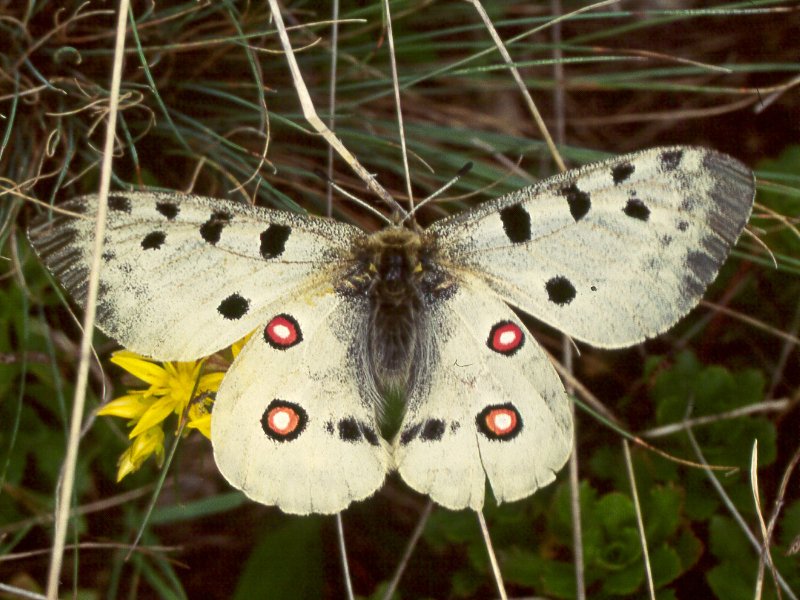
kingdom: Animalia
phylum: Arthropoda
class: Insecta
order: Lepidoptera
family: Papilionidae
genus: Parnassius
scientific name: Parnassius apollo
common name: Apollo
